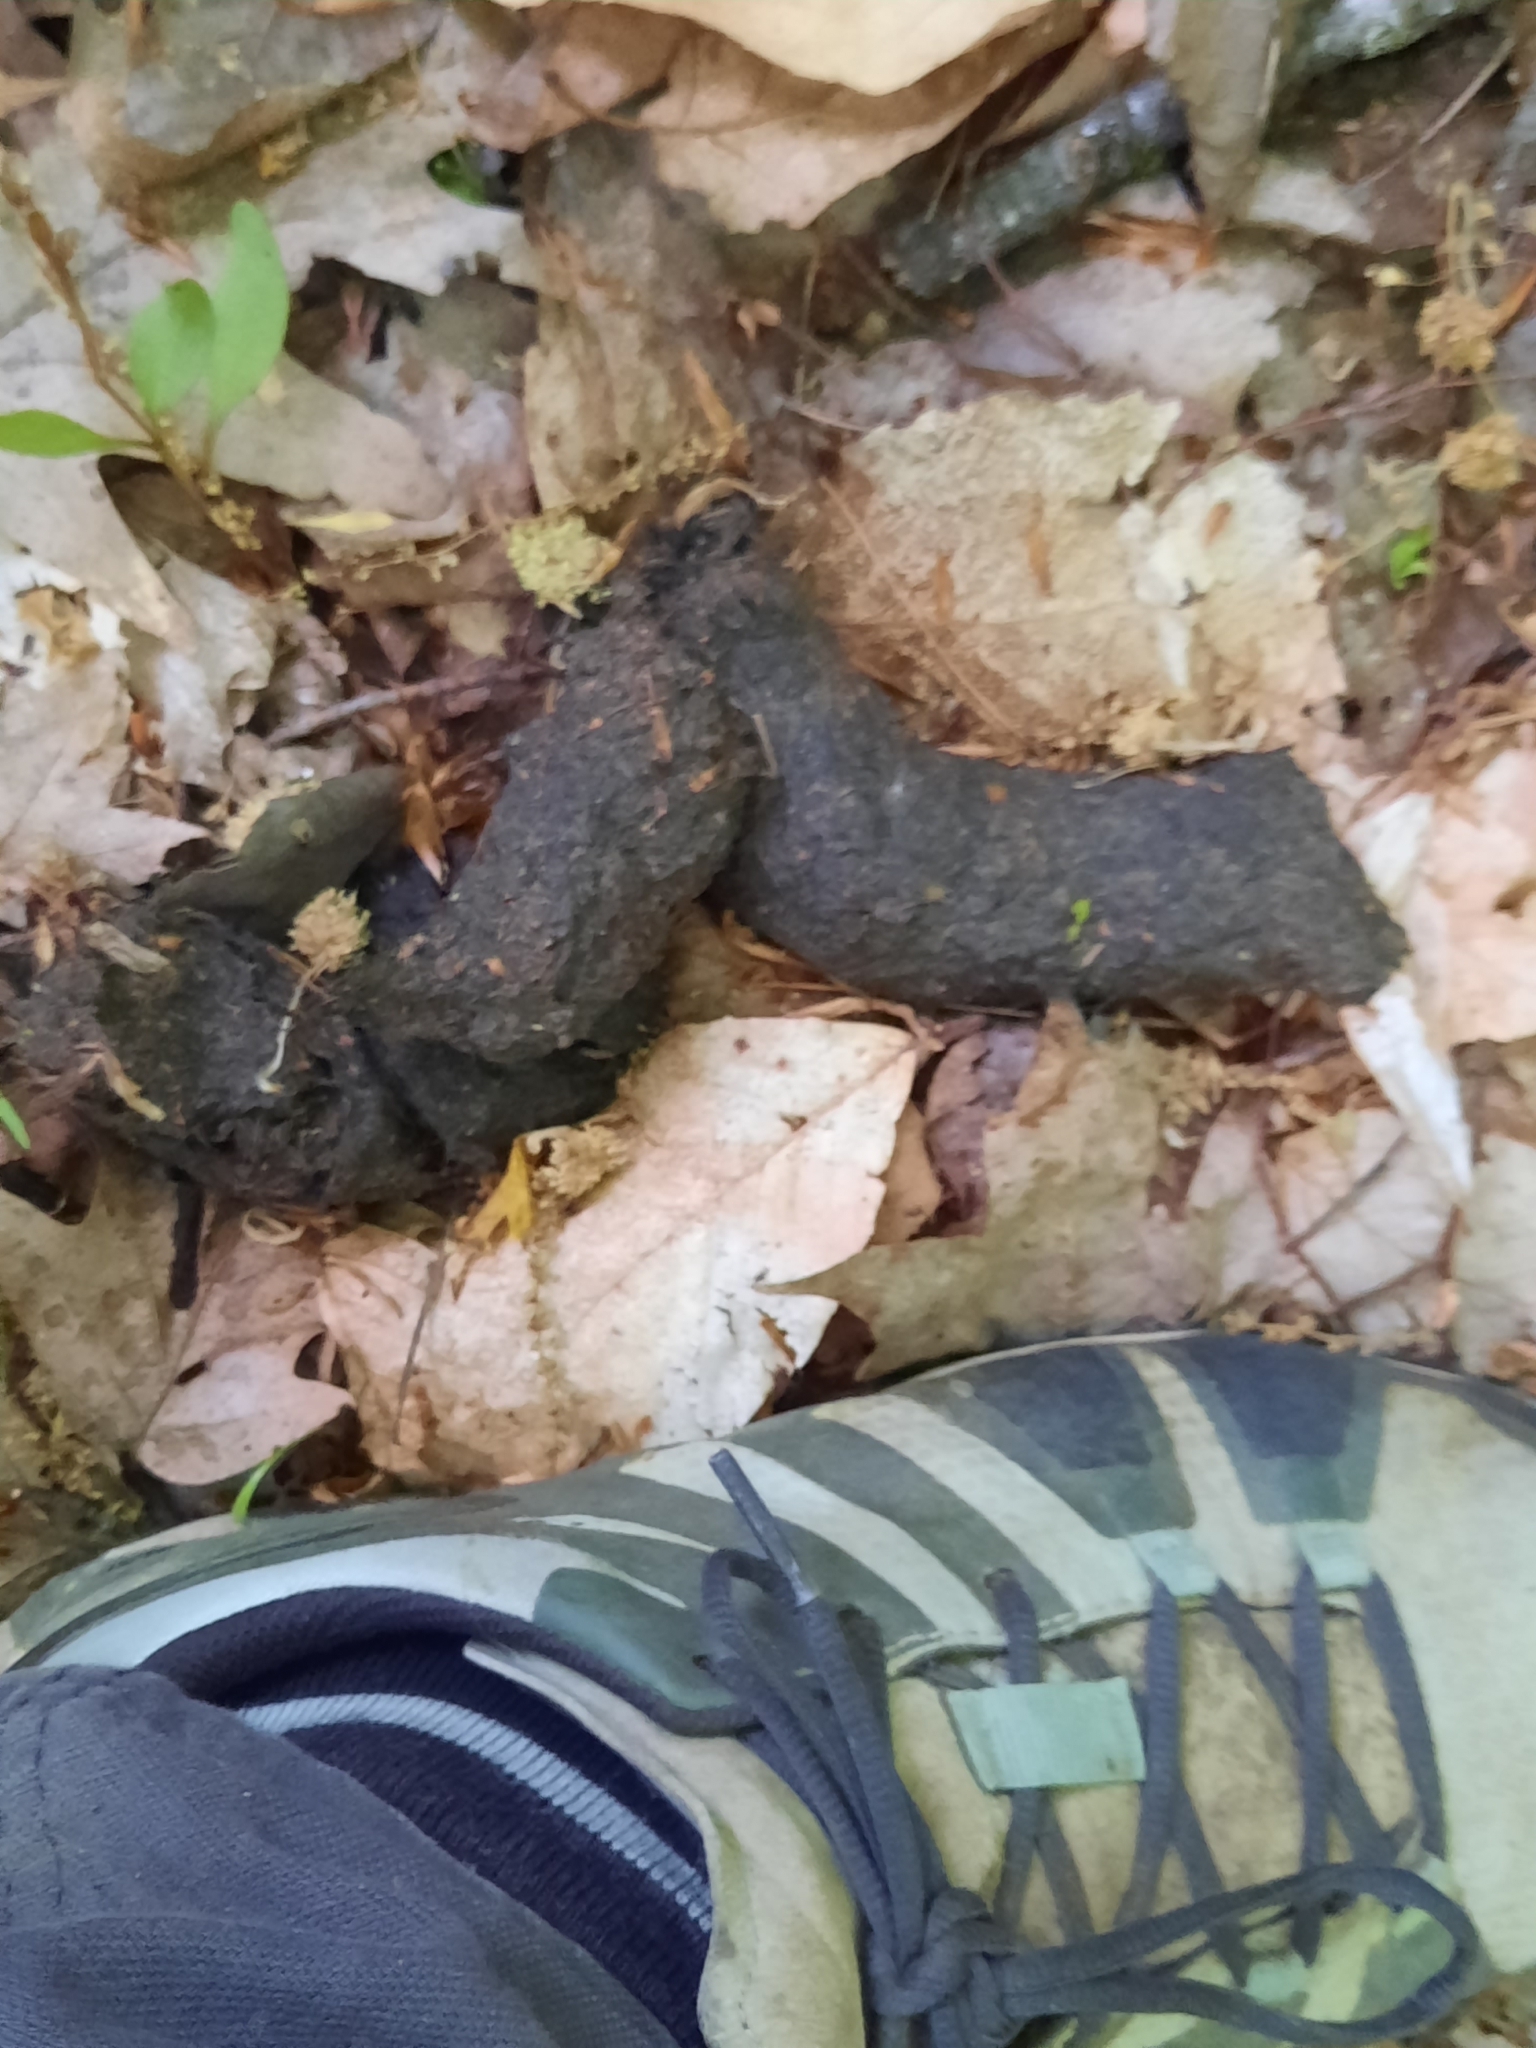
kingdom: Animalia
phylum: Chordata
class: Mammalia
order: Carnivora
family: Ursidae
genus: Ursus
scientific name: Ursus americanus
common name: American black bear
